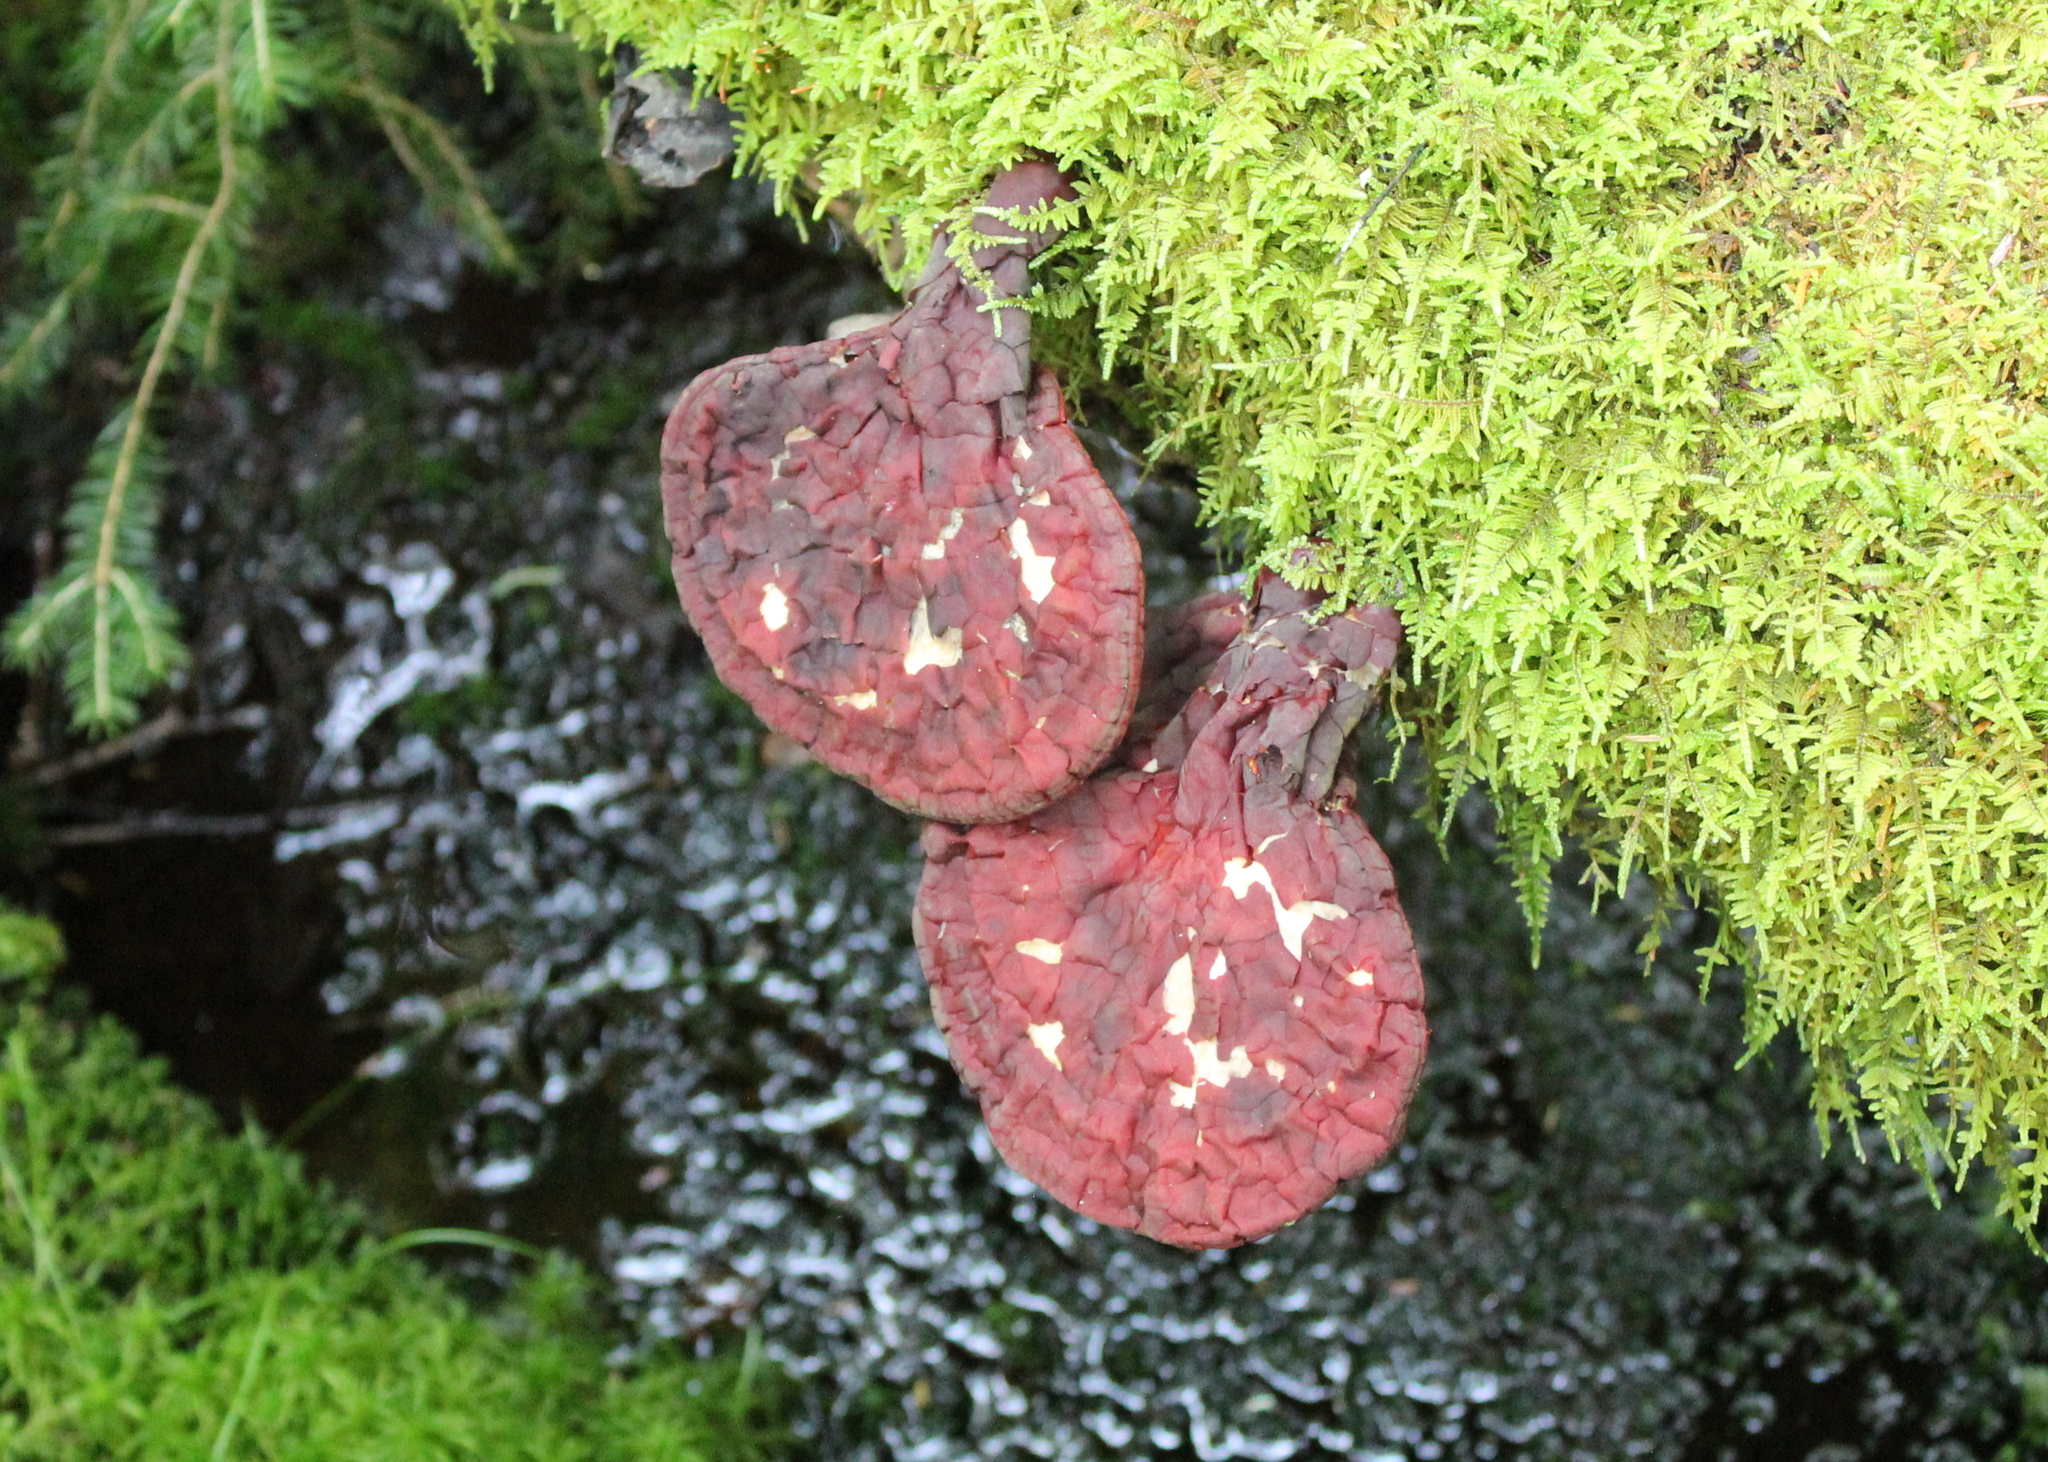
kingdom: Fungi
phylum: Basidiomycota
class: Agaricomycetes
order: Polyporales
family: Polyporaceae
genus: Ganoderma
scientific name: Ganoderma tsugae
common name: Hemlock varnish shelf
